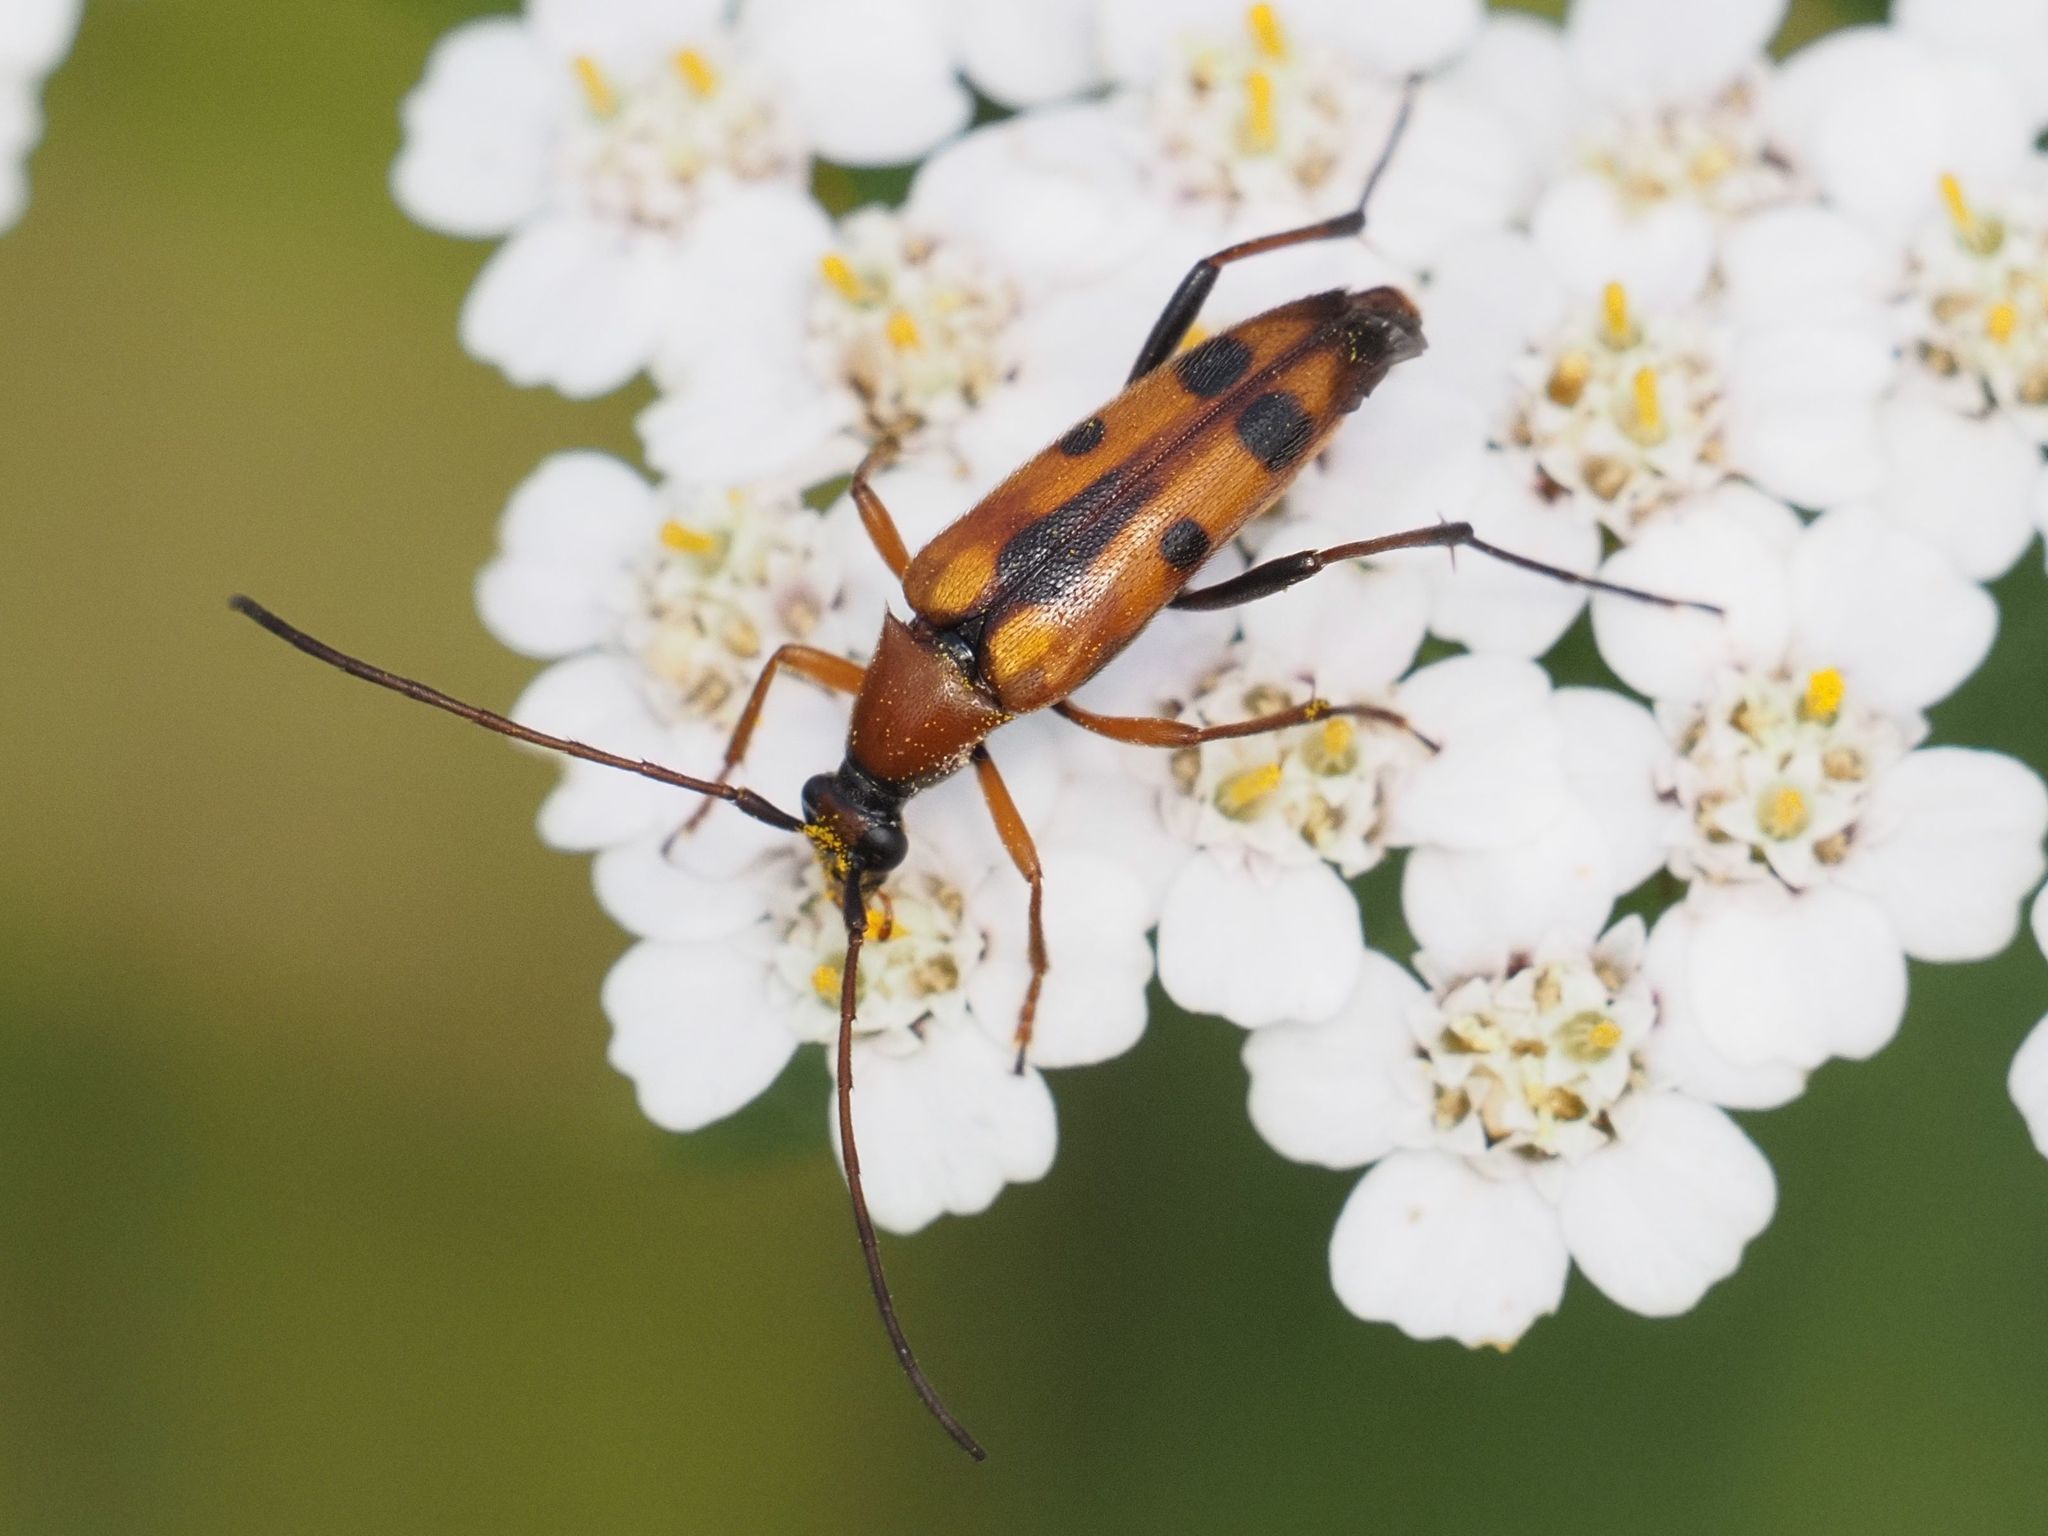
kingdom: Animalia
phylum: Arthropoda
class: Insecta
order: Coleoptera
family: Cerambycidae
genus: Stenurella
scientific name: Stenurella septempunctata
